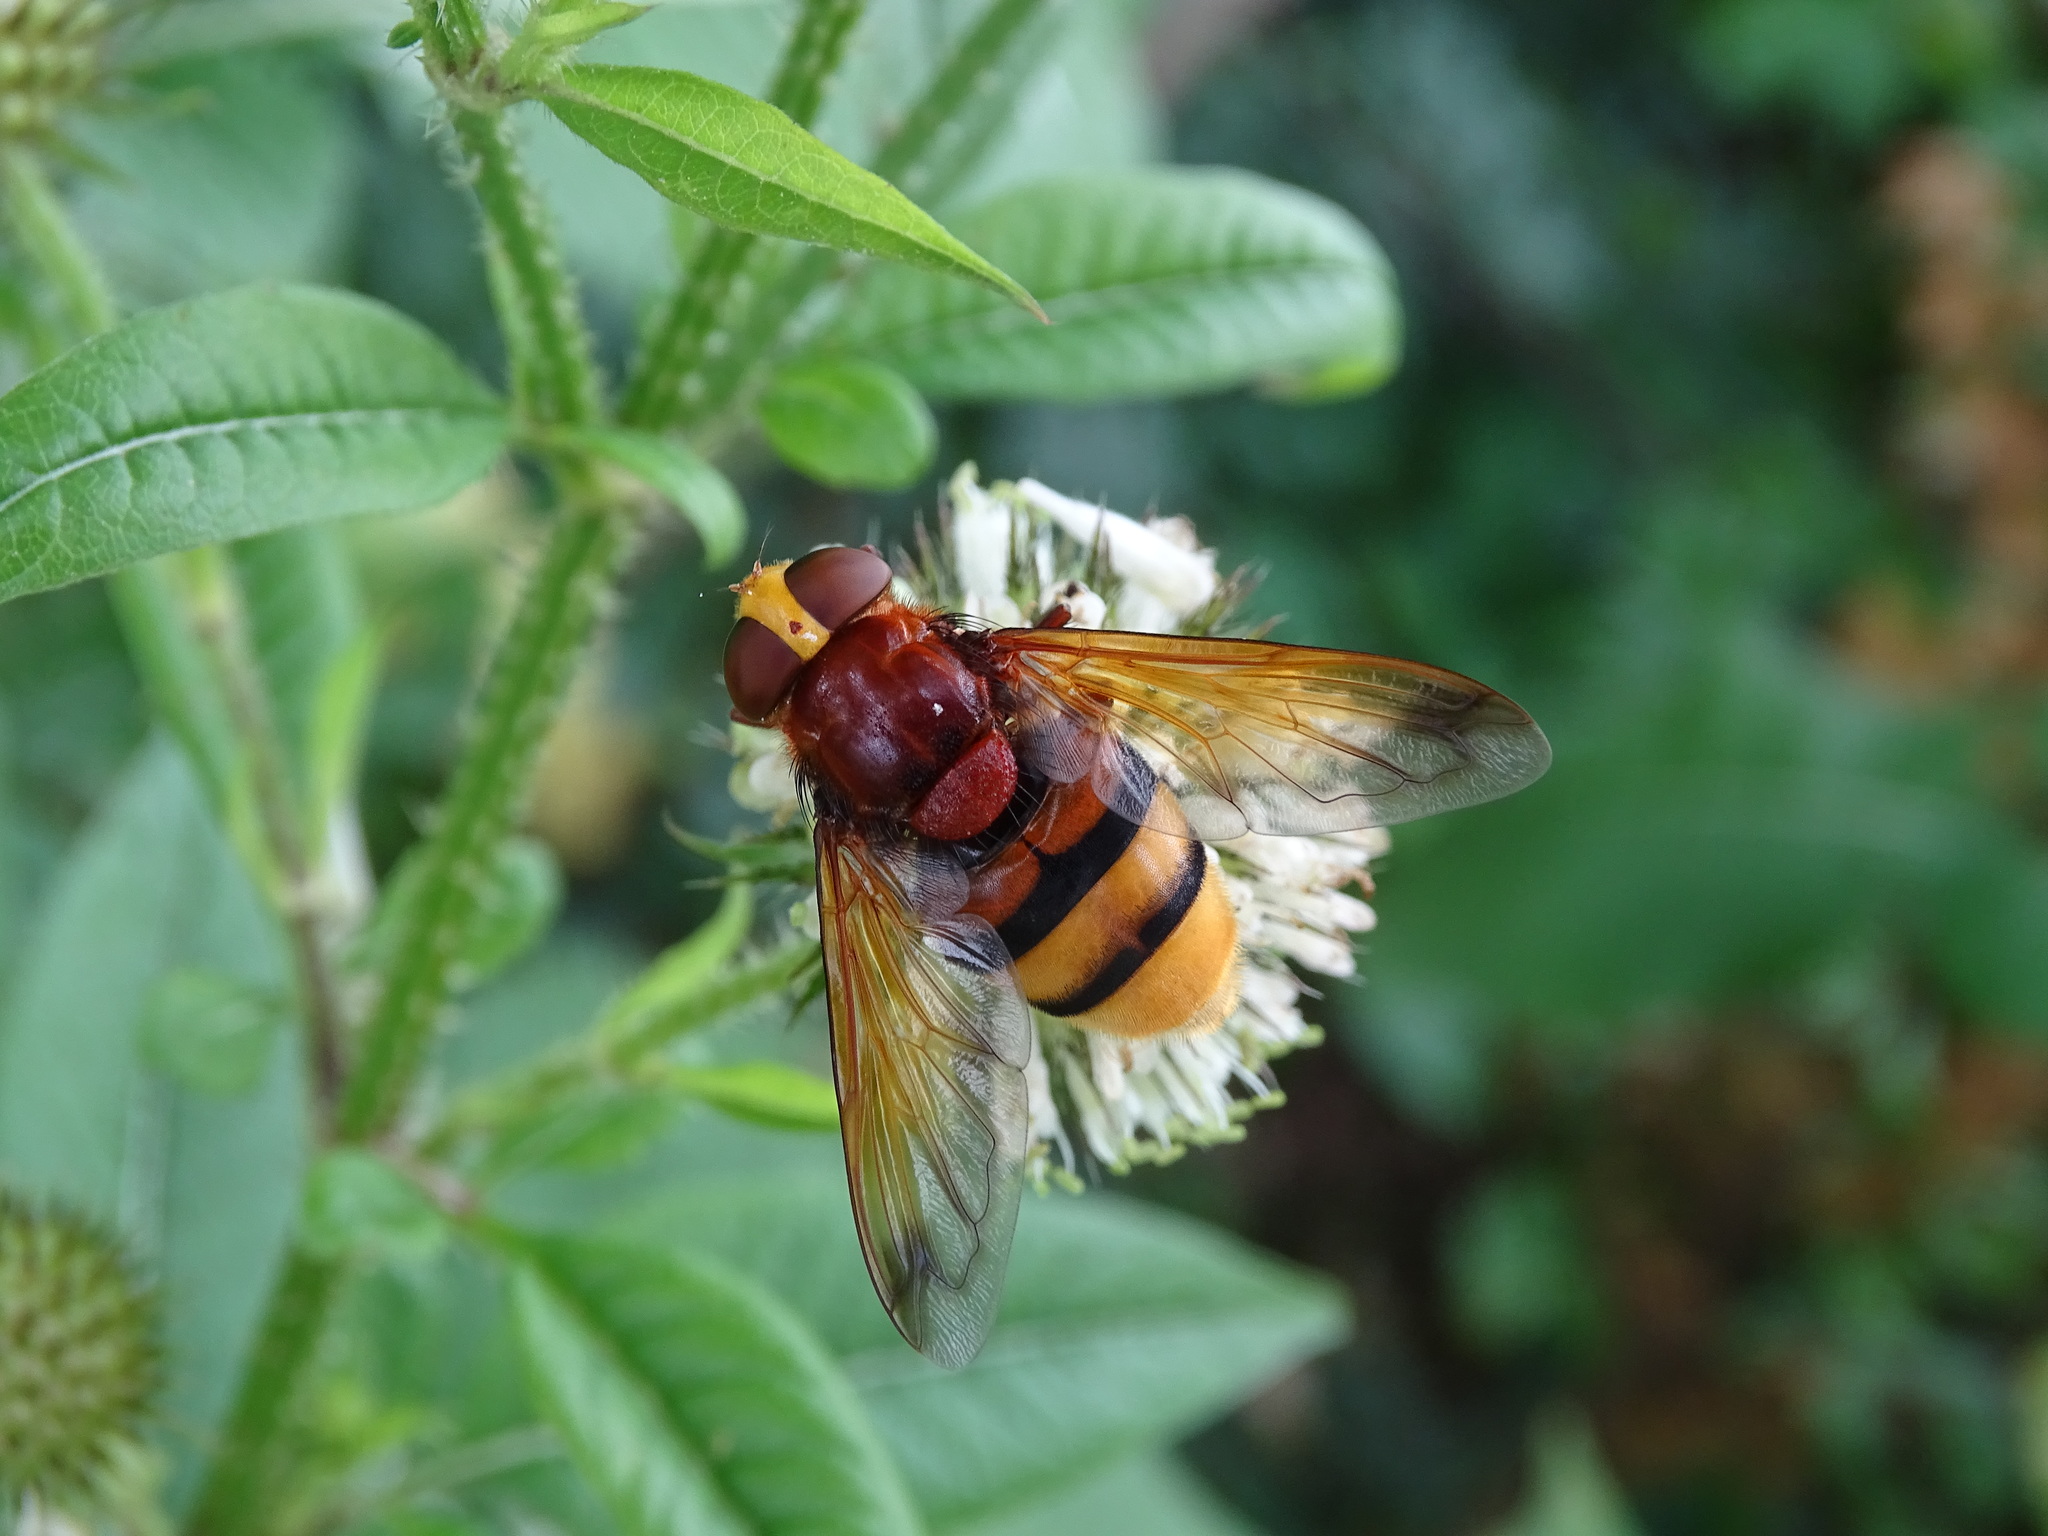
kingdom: Animalia
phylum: Arthropoda
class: Insecta
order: Diptera
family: Syrphidae
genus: Volucella
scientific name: Volucella zonaria
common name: Hornet hoverfly
